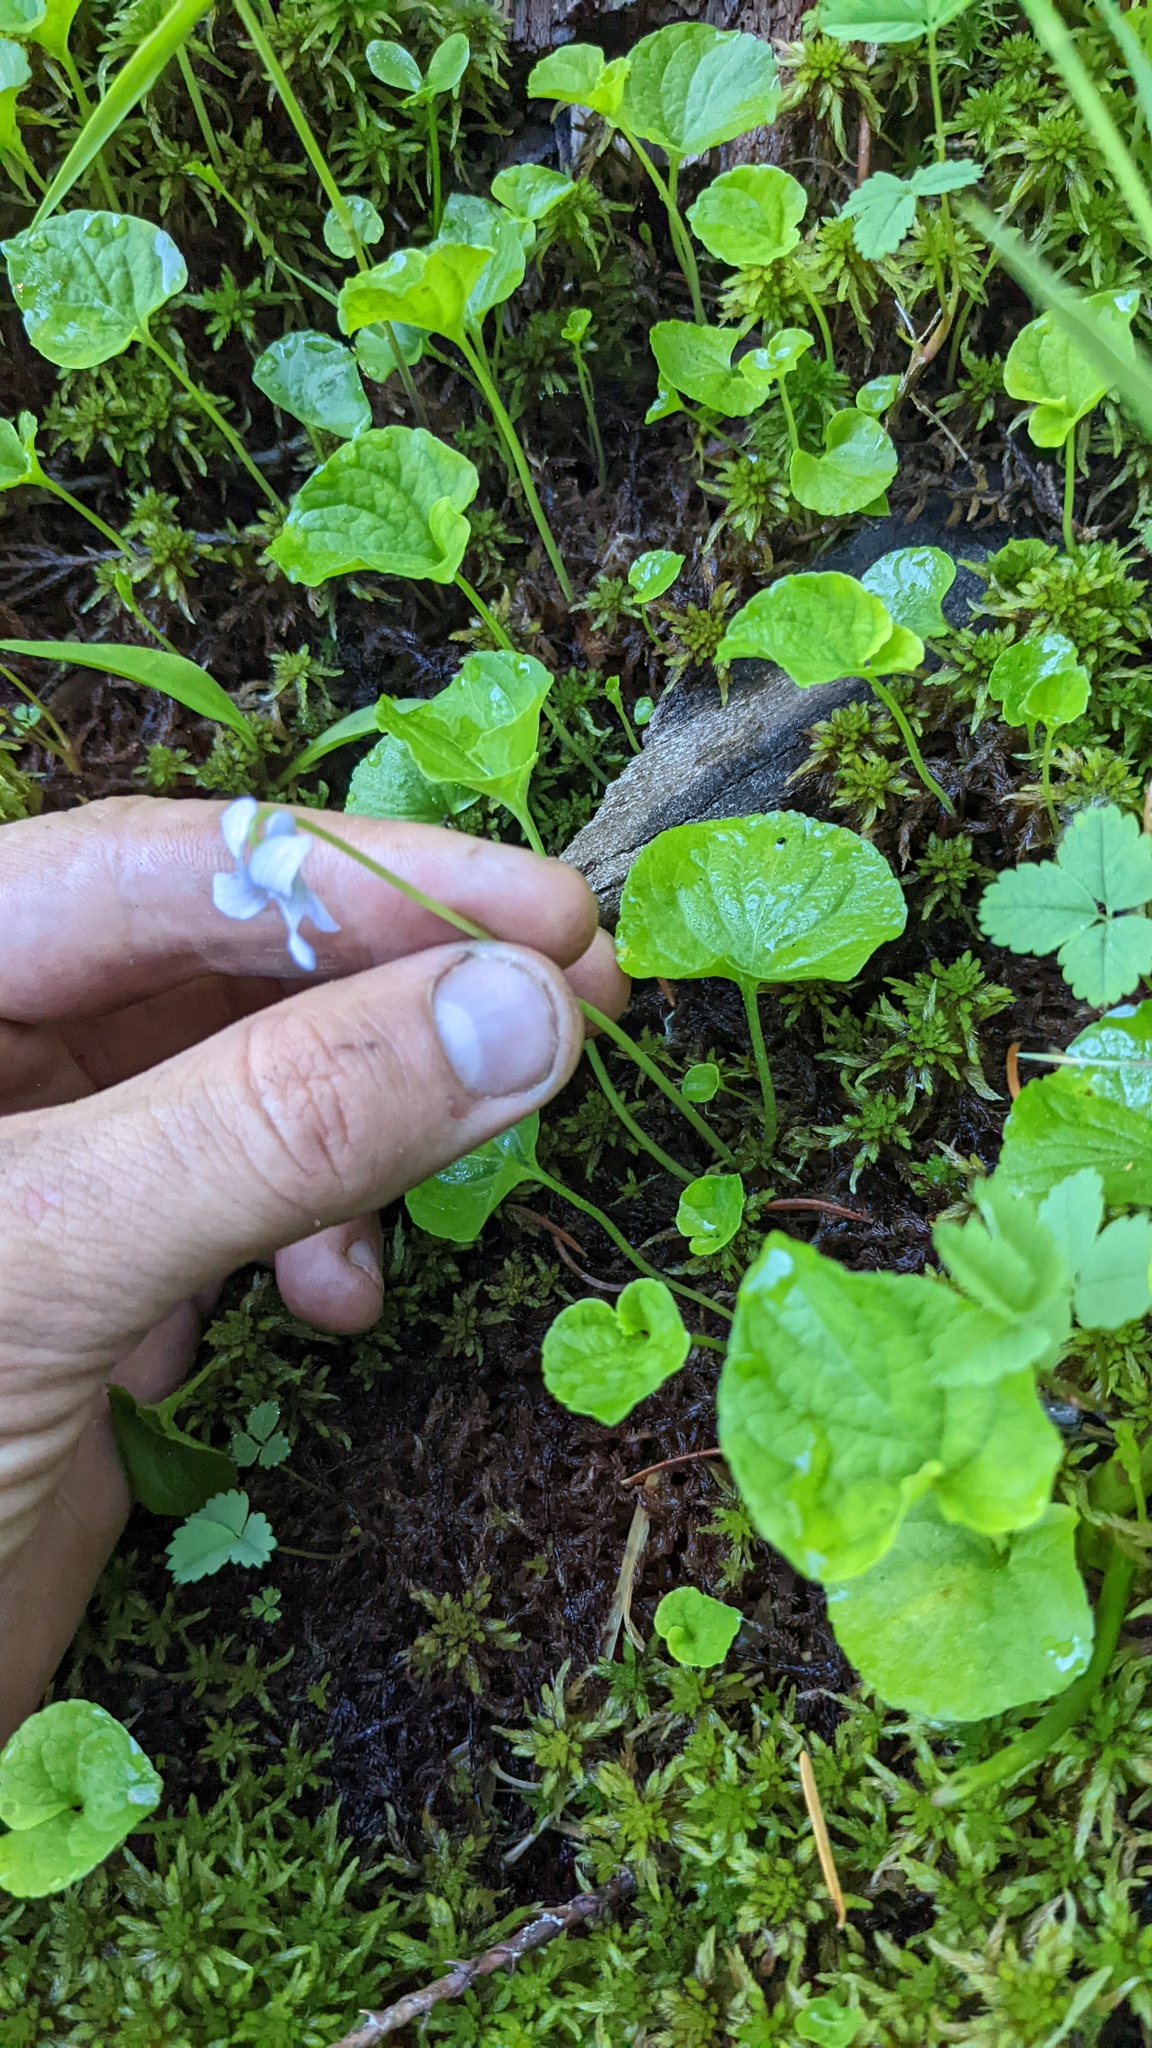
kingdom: Plantae
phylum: Tracheophyta
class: Magnoliopsida
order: Malpighiales
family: Violaceae
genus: Viola
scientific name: Viola palustris
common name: Marsh violet
